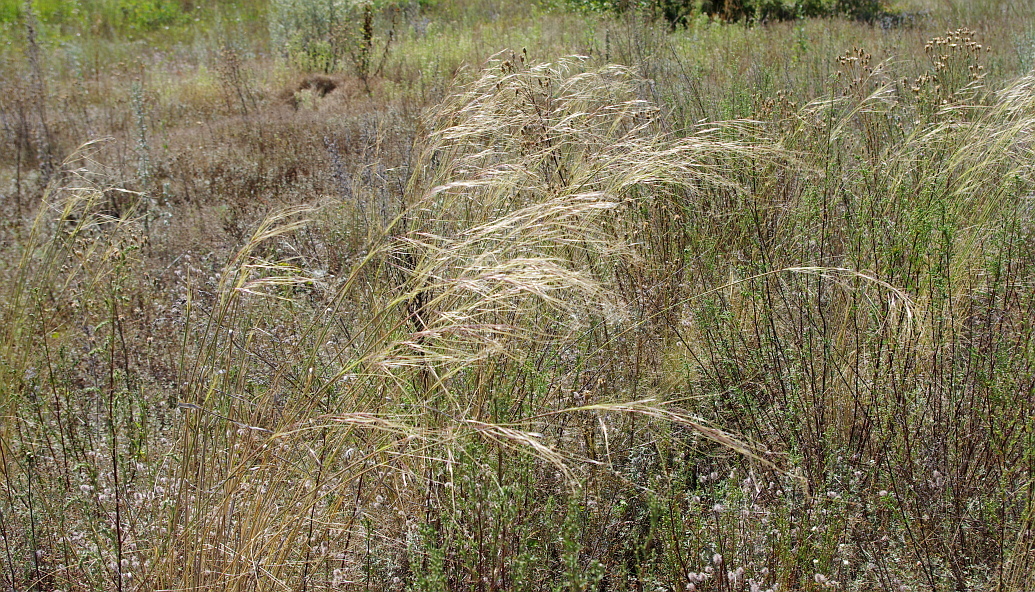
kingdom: Plantae
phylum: Tracheophyta
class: Liliopsida
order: Poales
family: Poaceae
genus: Stipa
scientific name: Stipa capillata
